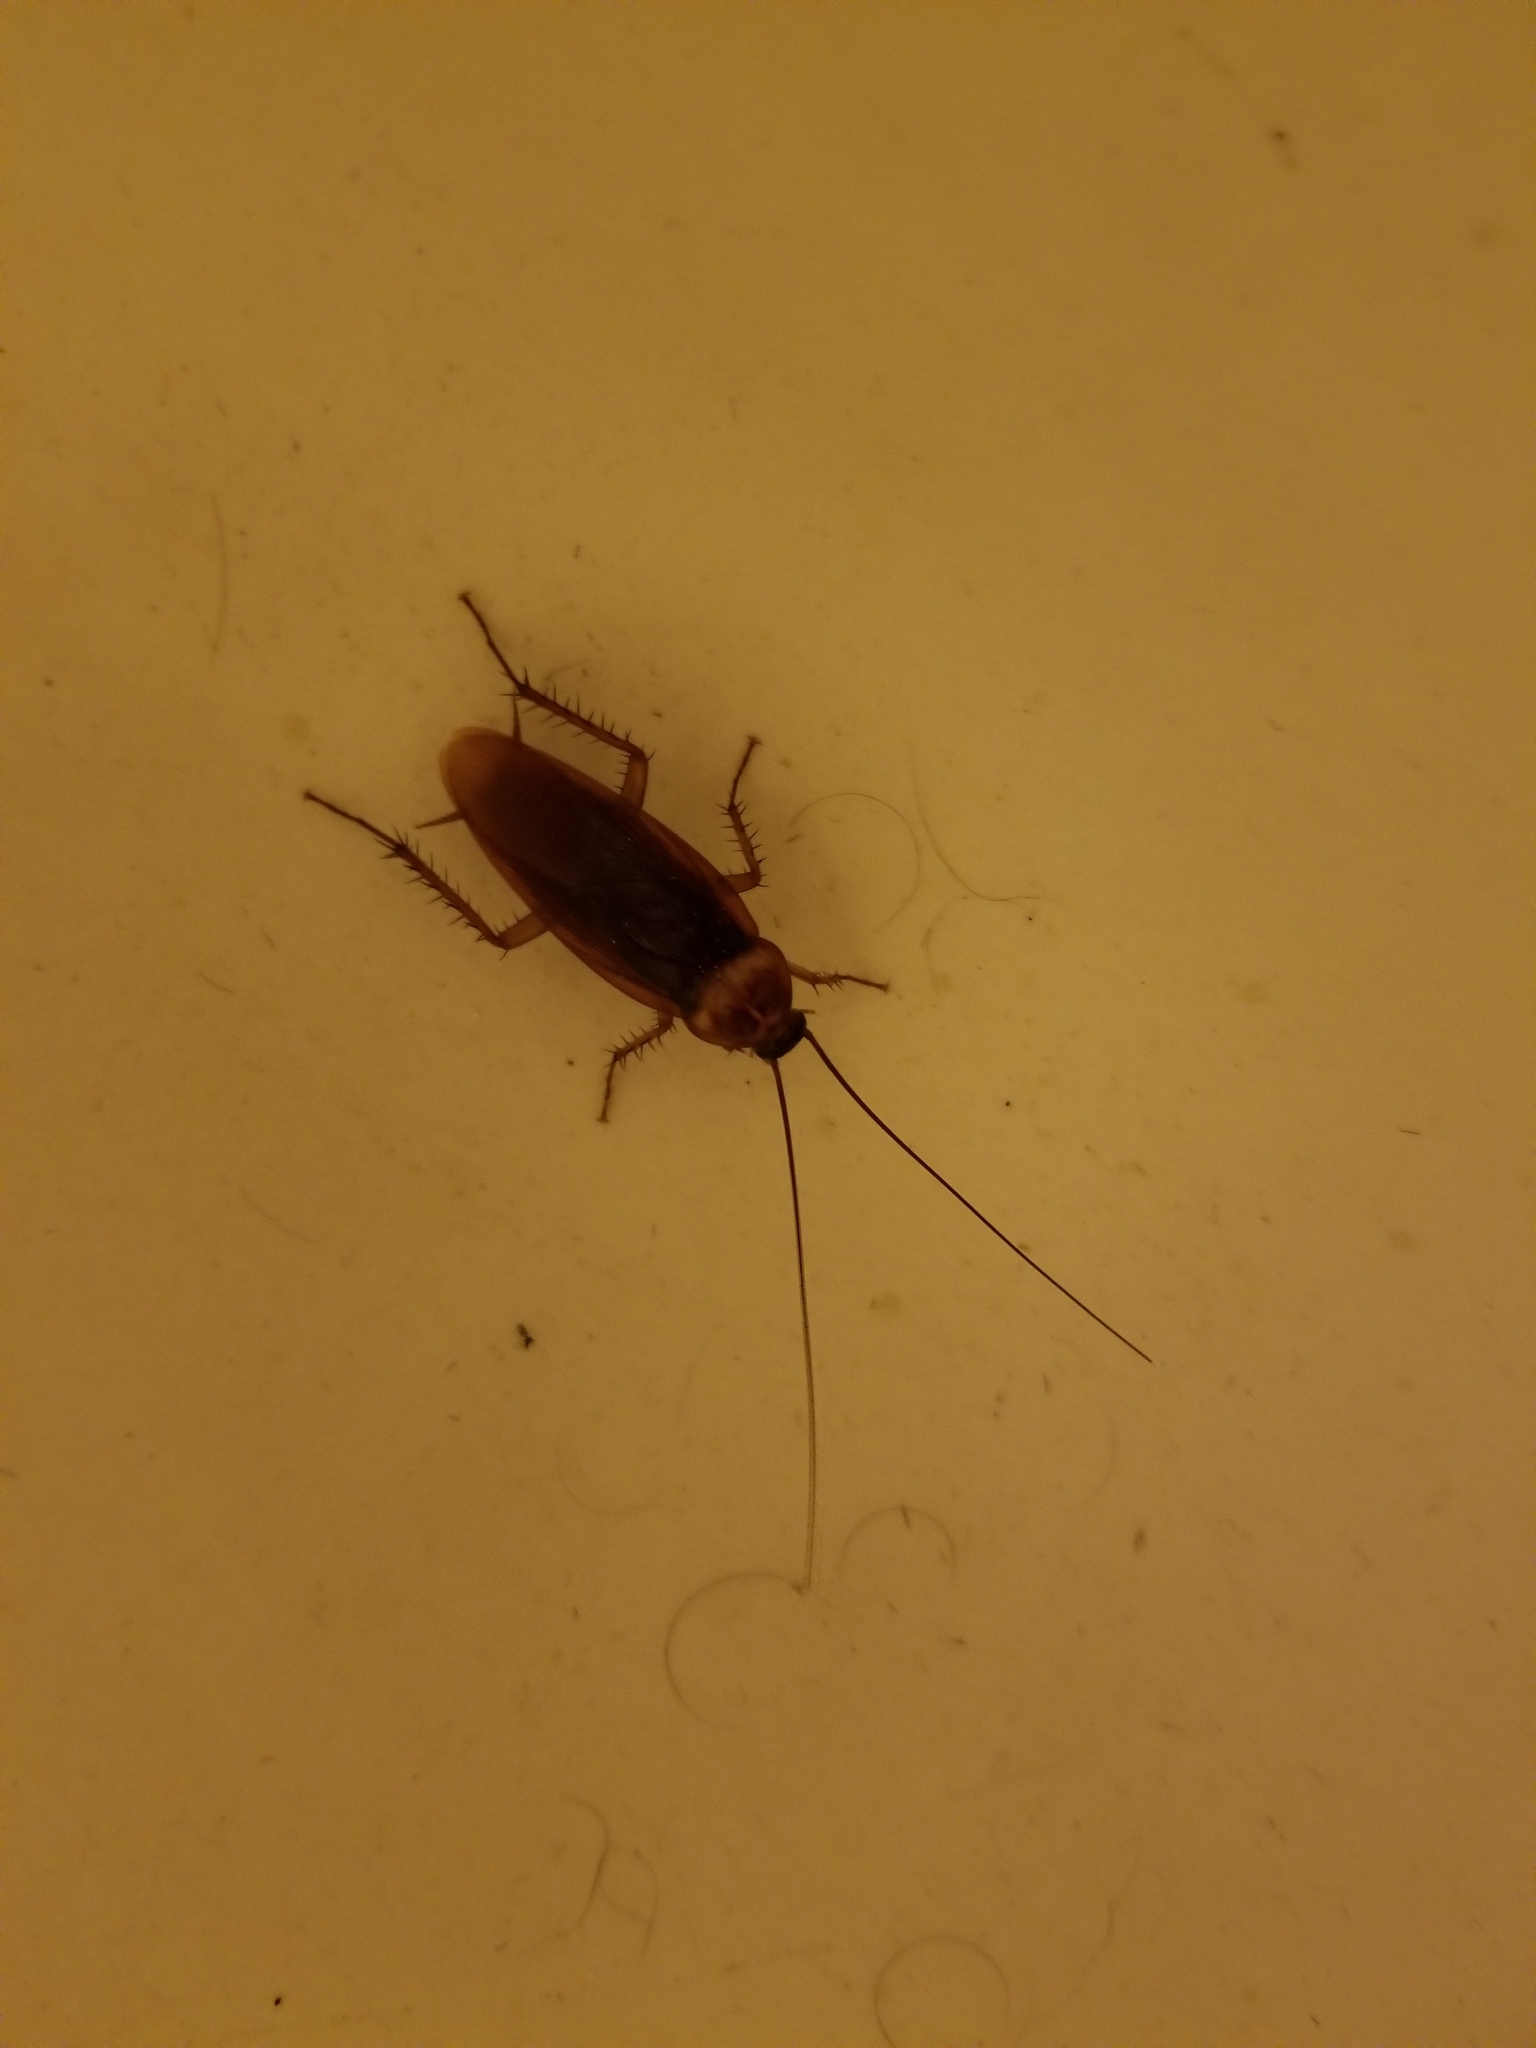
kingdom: Animalia
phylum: Arthropoda
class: Insecta
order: Blattodea
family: Blattidae
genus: Periplaneta
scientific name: Periplaneta americana
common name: American cockroach
